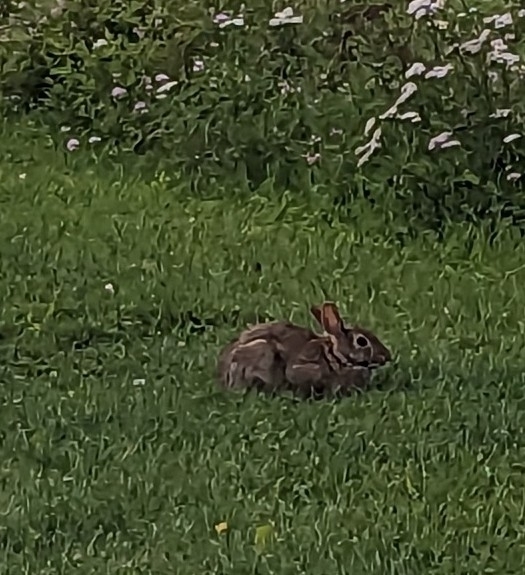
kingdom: Animalia
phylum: Chordata
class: Mammalia
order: Lagomorpha
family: Leporidae
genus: Sylvilagus
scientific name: Sylvilagus floridanus
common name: Eastern cottontail
